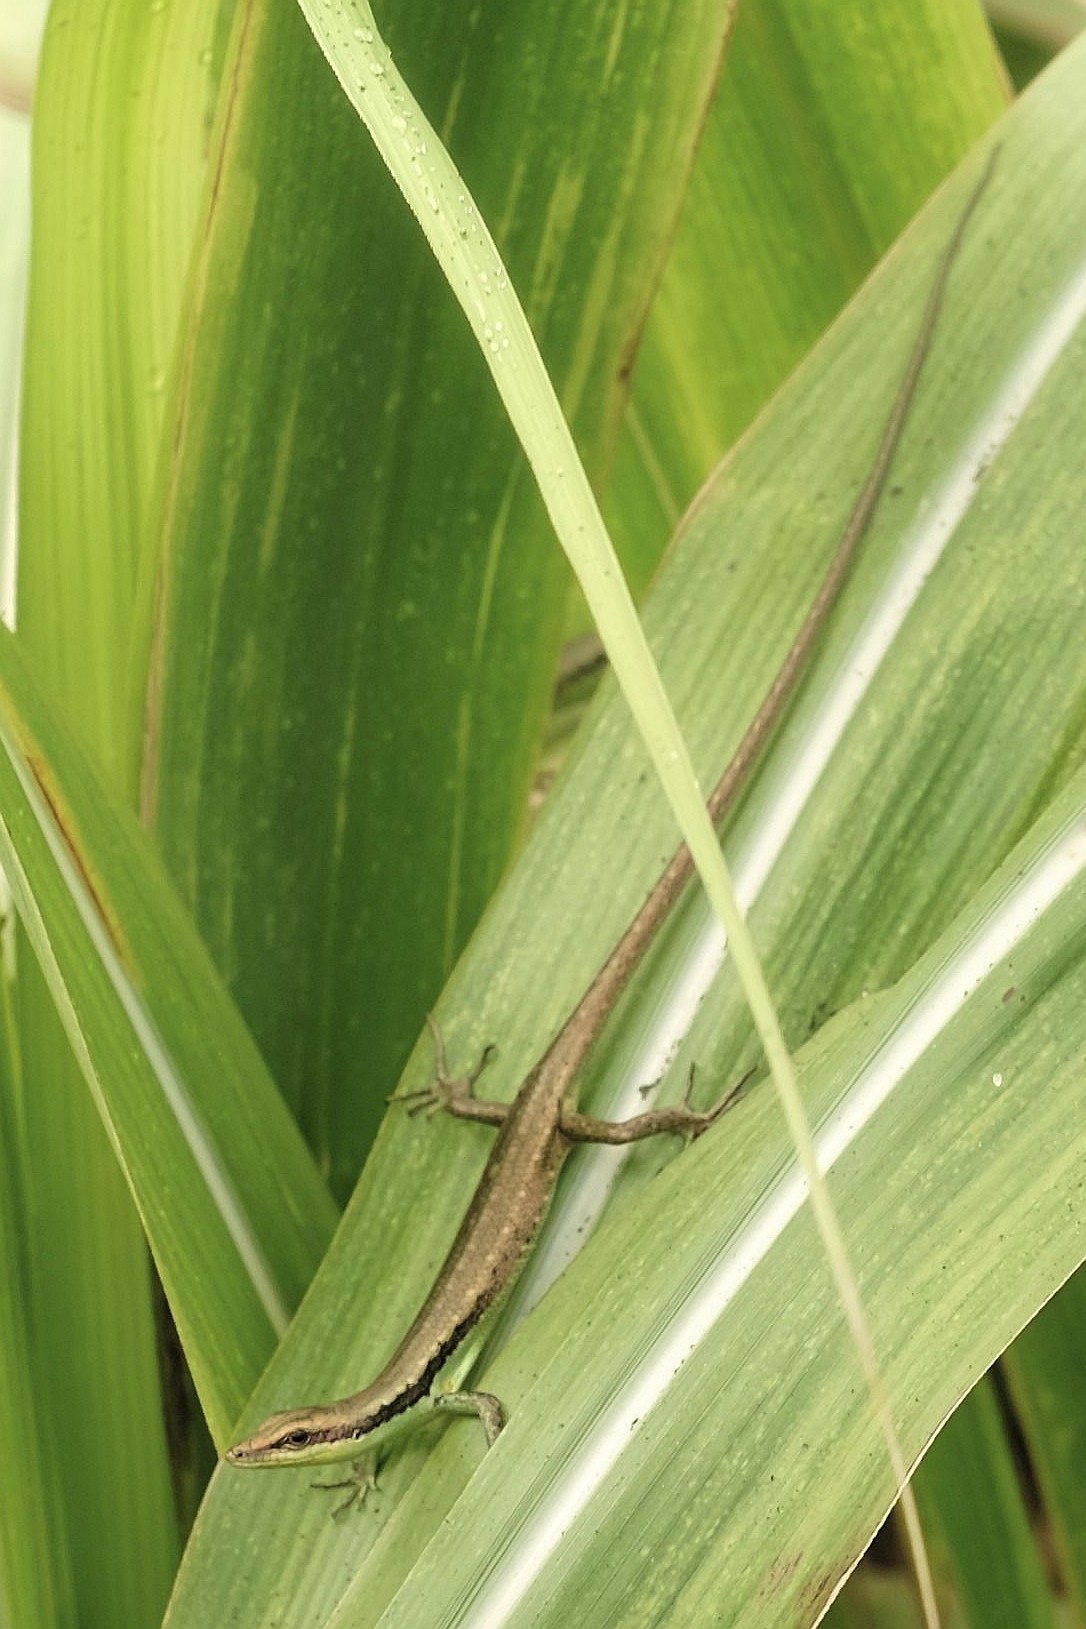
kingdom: Animalia
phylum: Chordata
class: Squamata
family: Scincidae
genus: Emoia
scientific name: Emoia cyanogaster
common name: Teal emo skink
